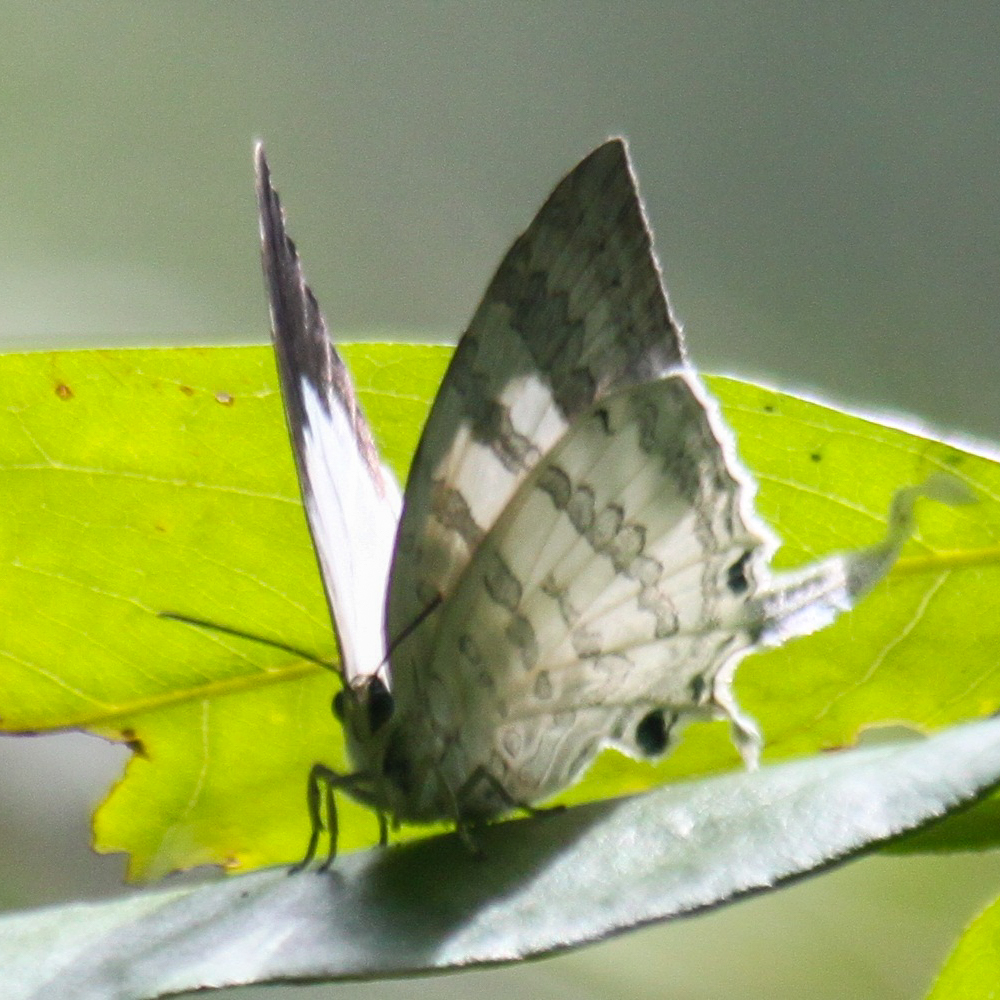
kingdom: Animalia
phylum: Arthropoda
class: Insecta
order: Lepidoptera
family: Lycaenidae
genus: Neomyrina
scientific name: Neomyrina hiemalis
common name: White imperial
